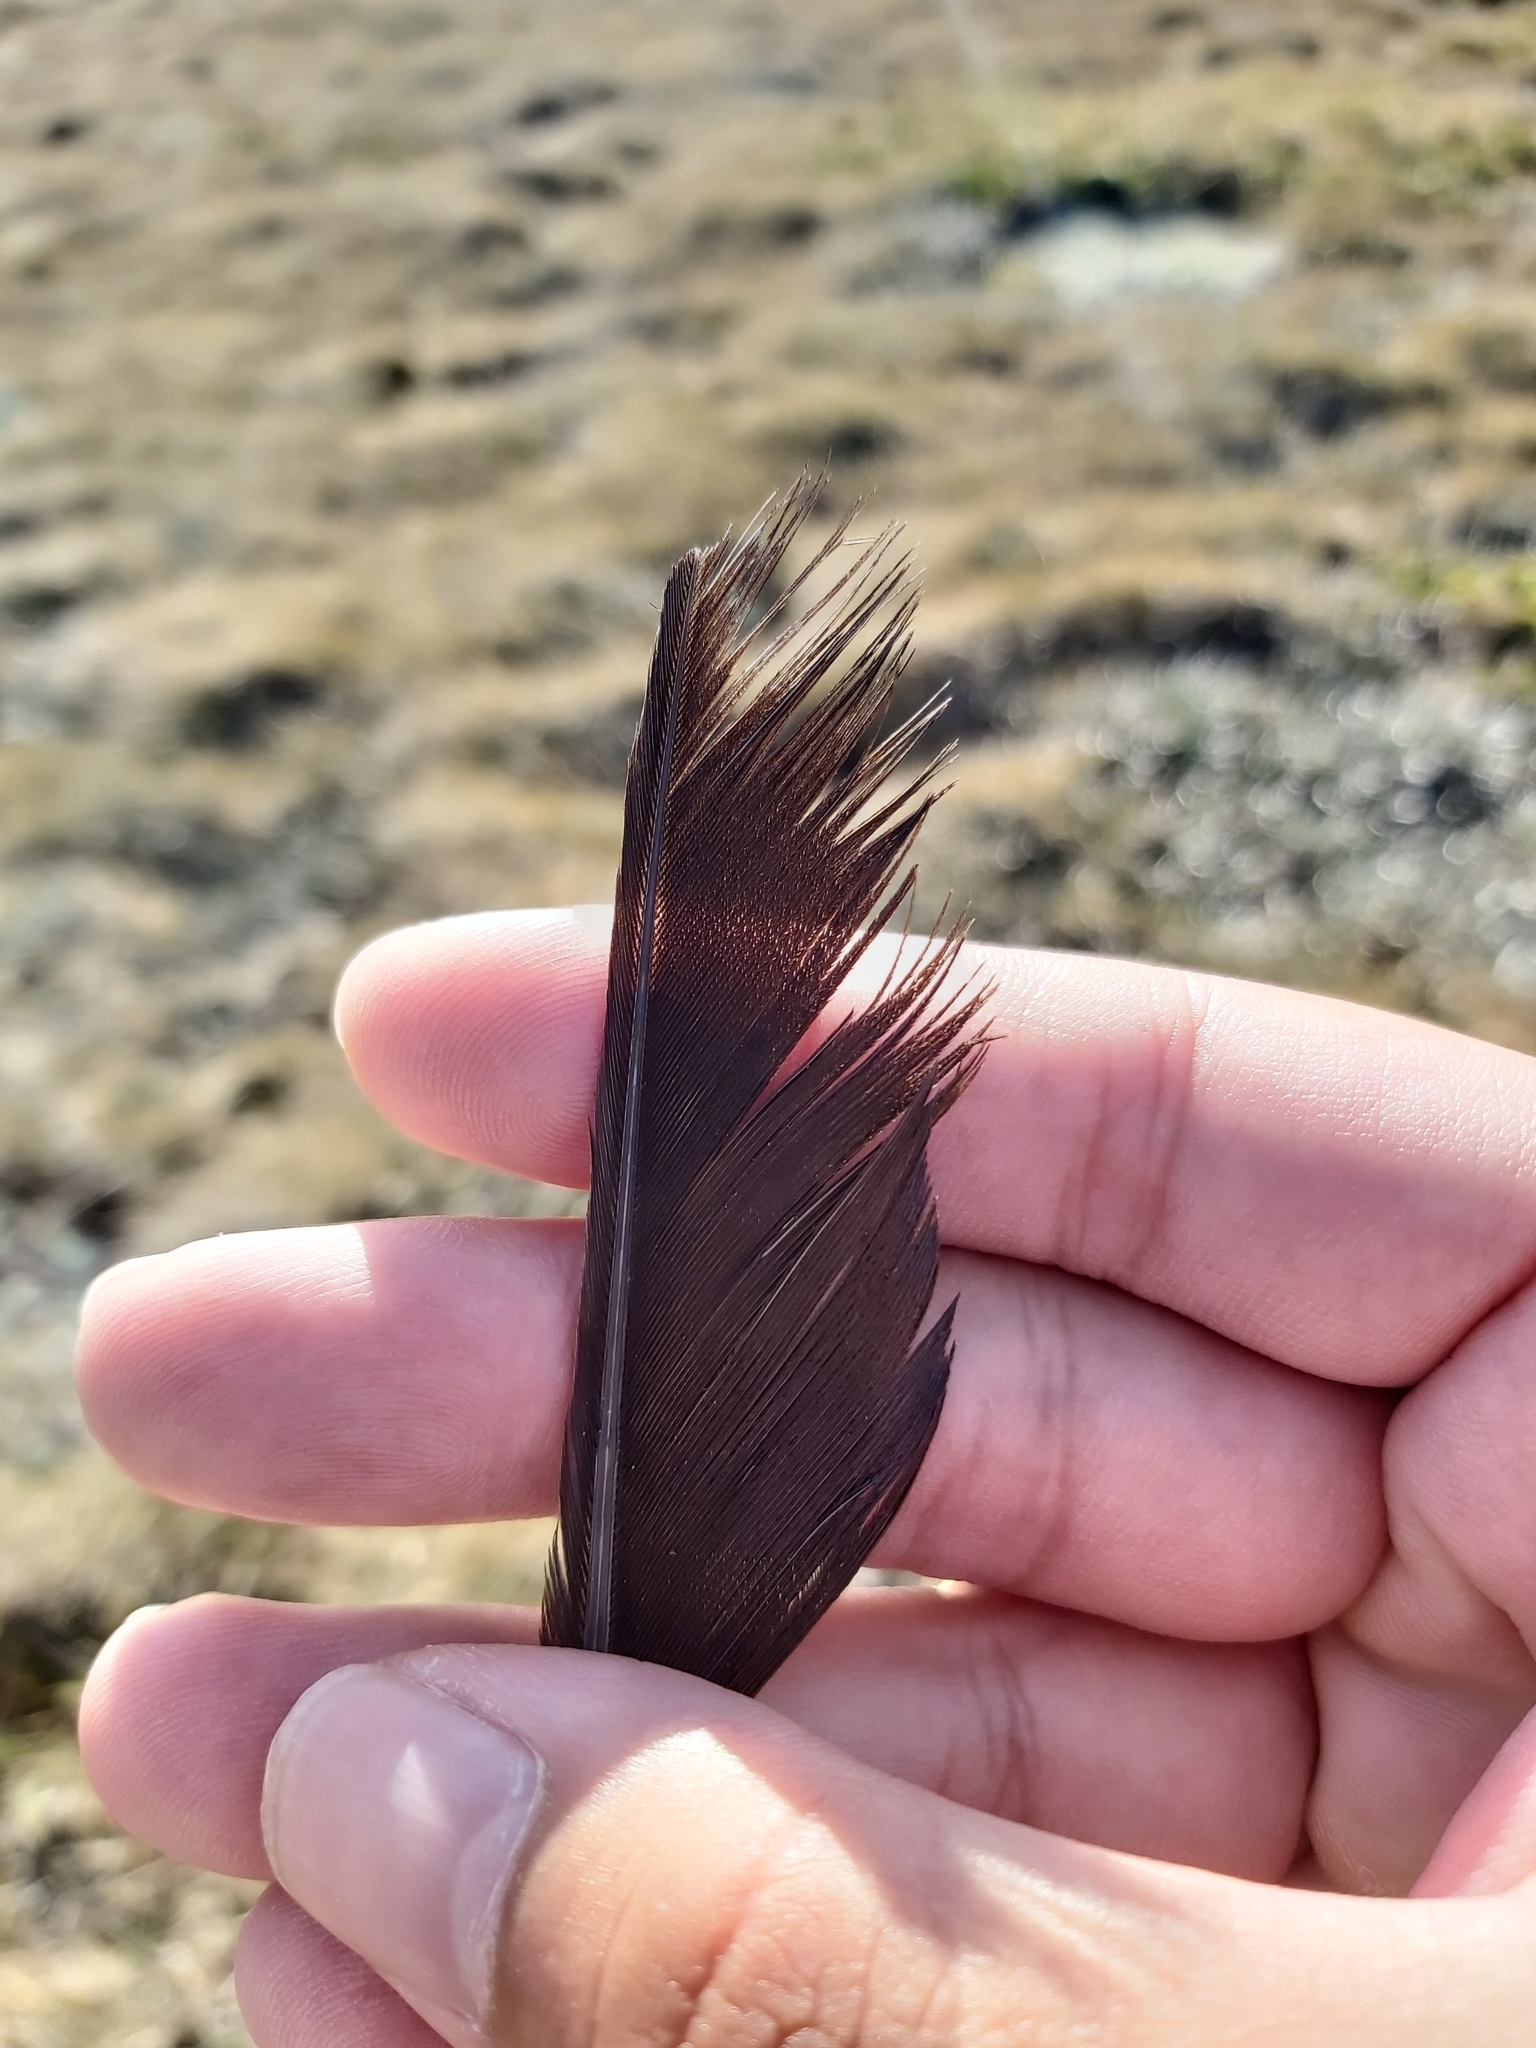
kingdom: Animalia
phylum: Chordata
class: Aves
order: Passeriformes
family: Corvidae
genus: Corvus
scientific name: Corvus
